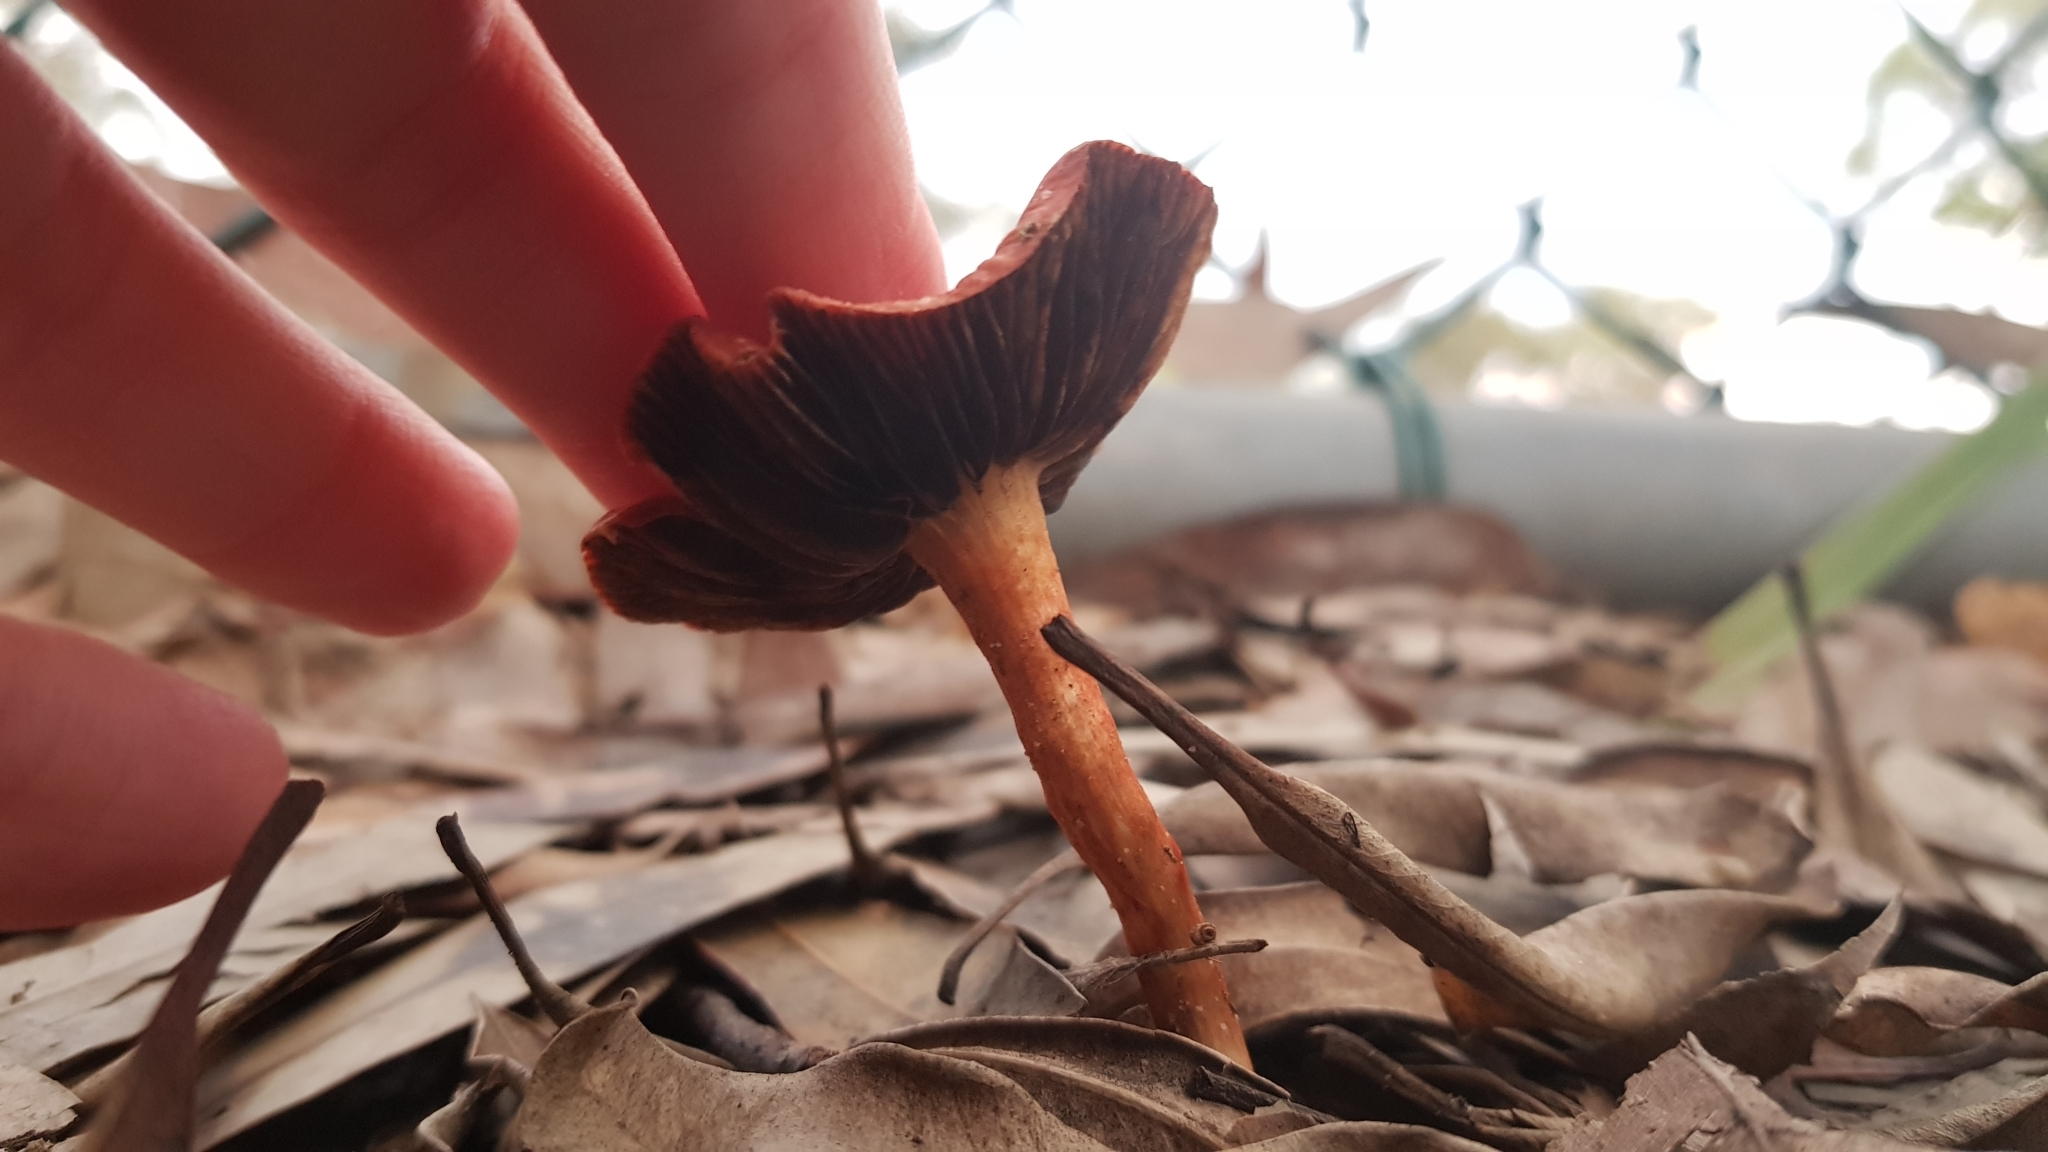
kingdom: Fungi
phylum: Basidiomycota
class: Agaricomycetes
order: Agaricales
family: Strophariaceae
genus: Leratiomyces
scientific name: Leratiomyces ceres
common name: Redlead roundhead
